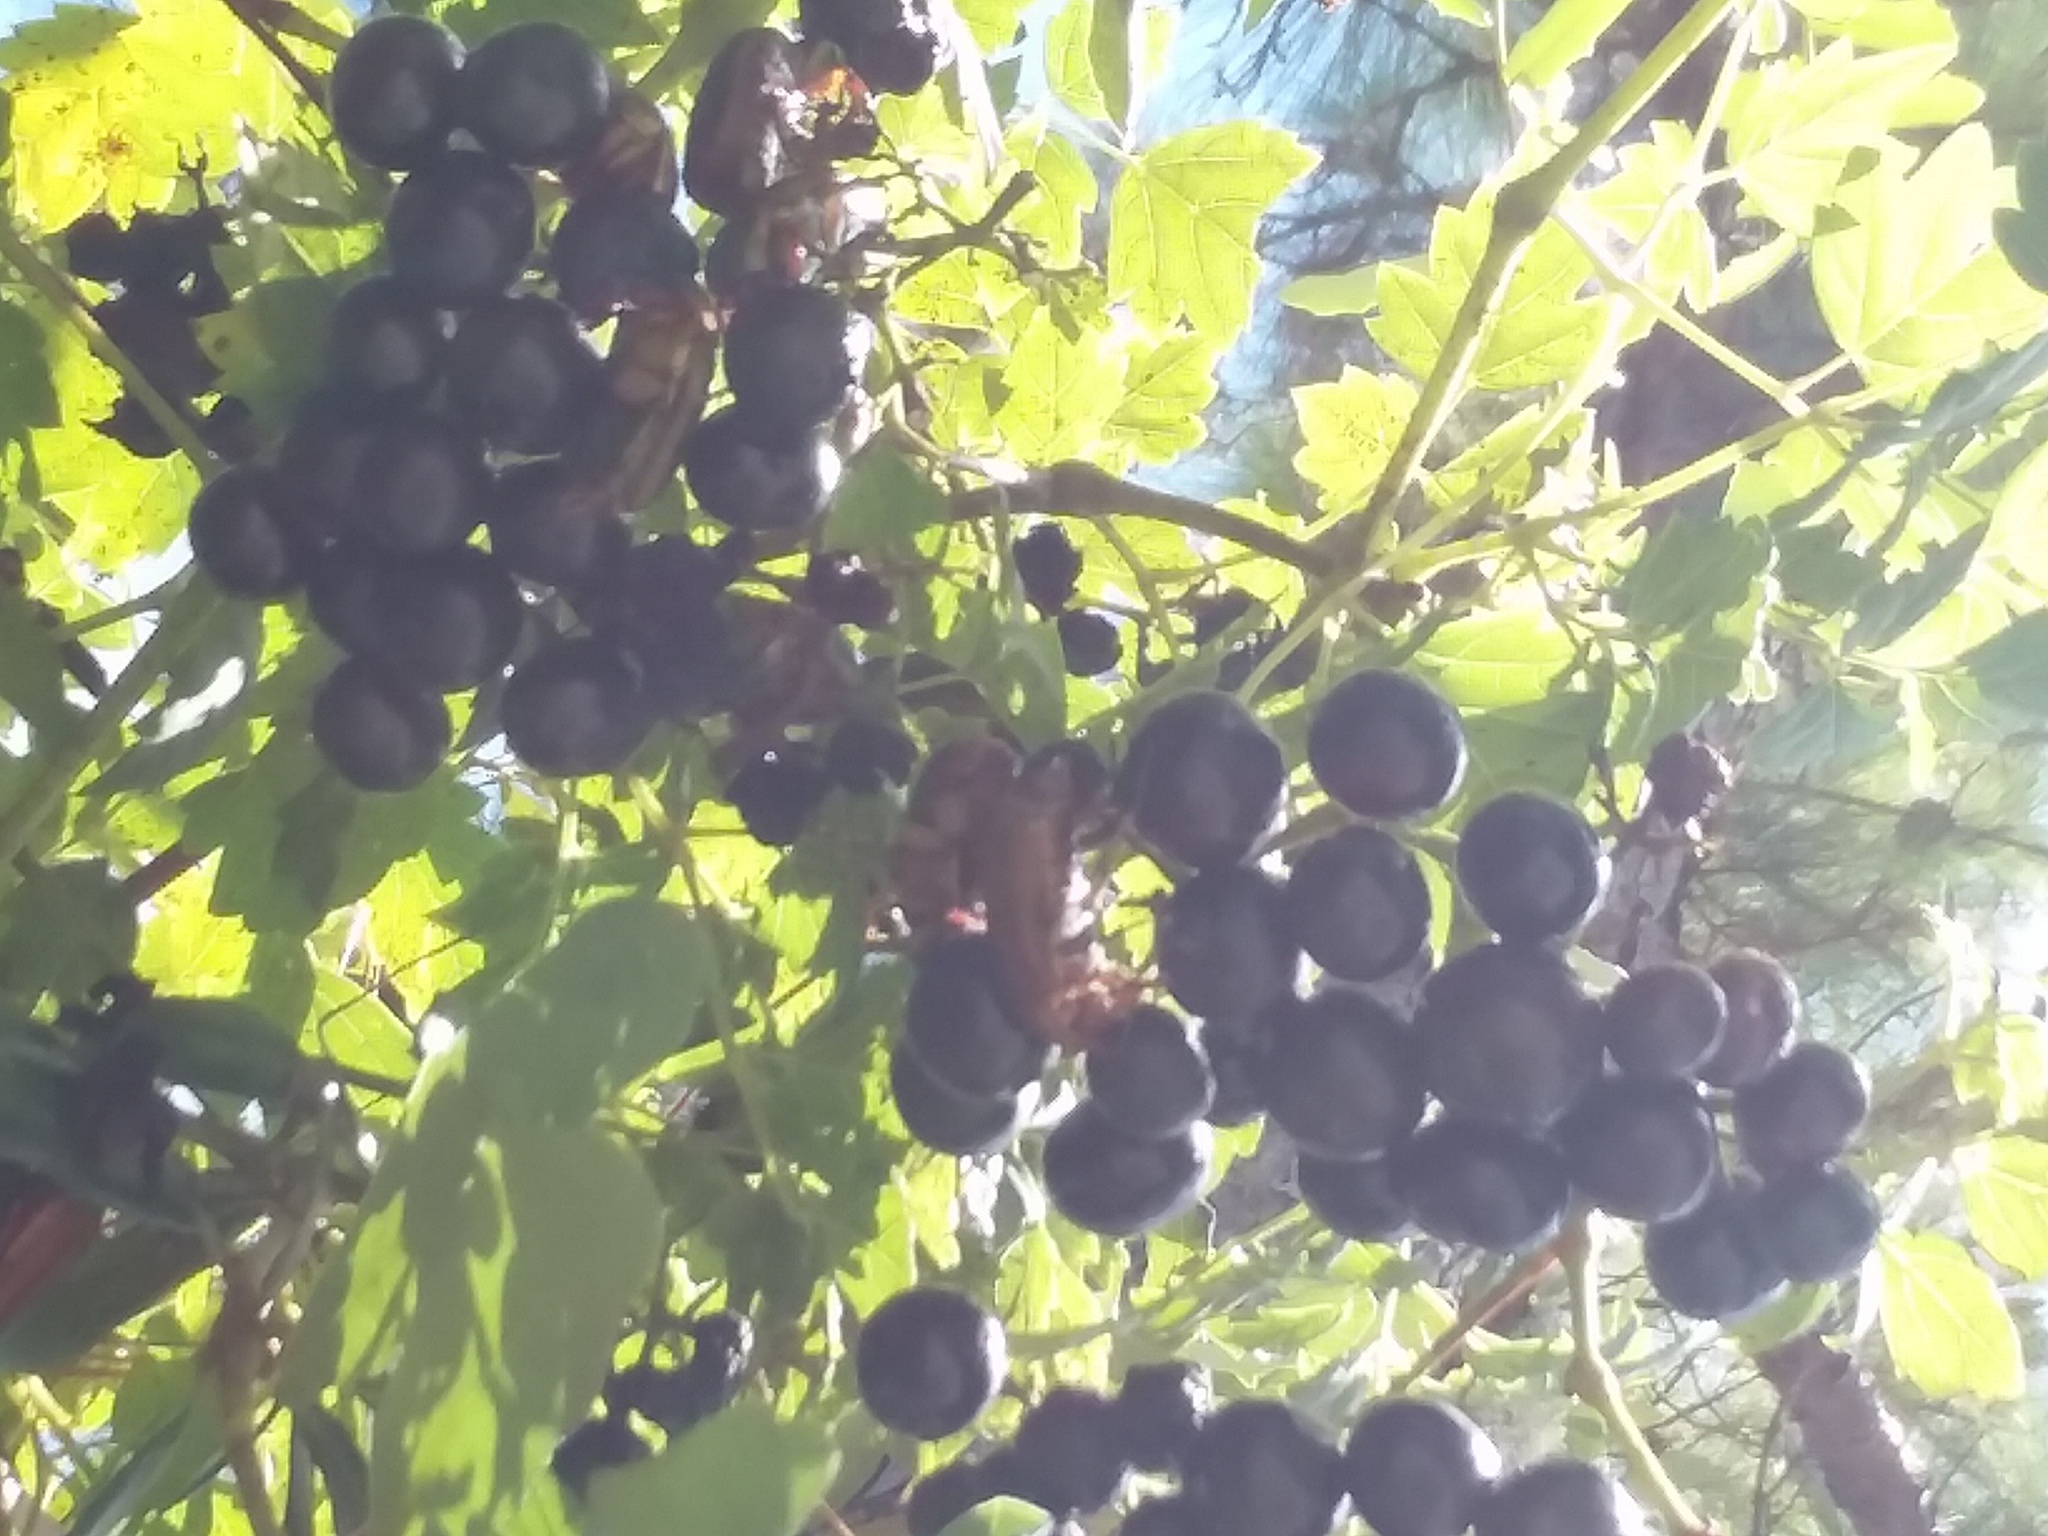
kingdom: Animalia
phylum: Arthropoda
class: Insecta
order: Coleoptera
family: Scarabaeidae
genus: Cotinis
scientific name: Cotinis nitida
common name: Common green june beetle
